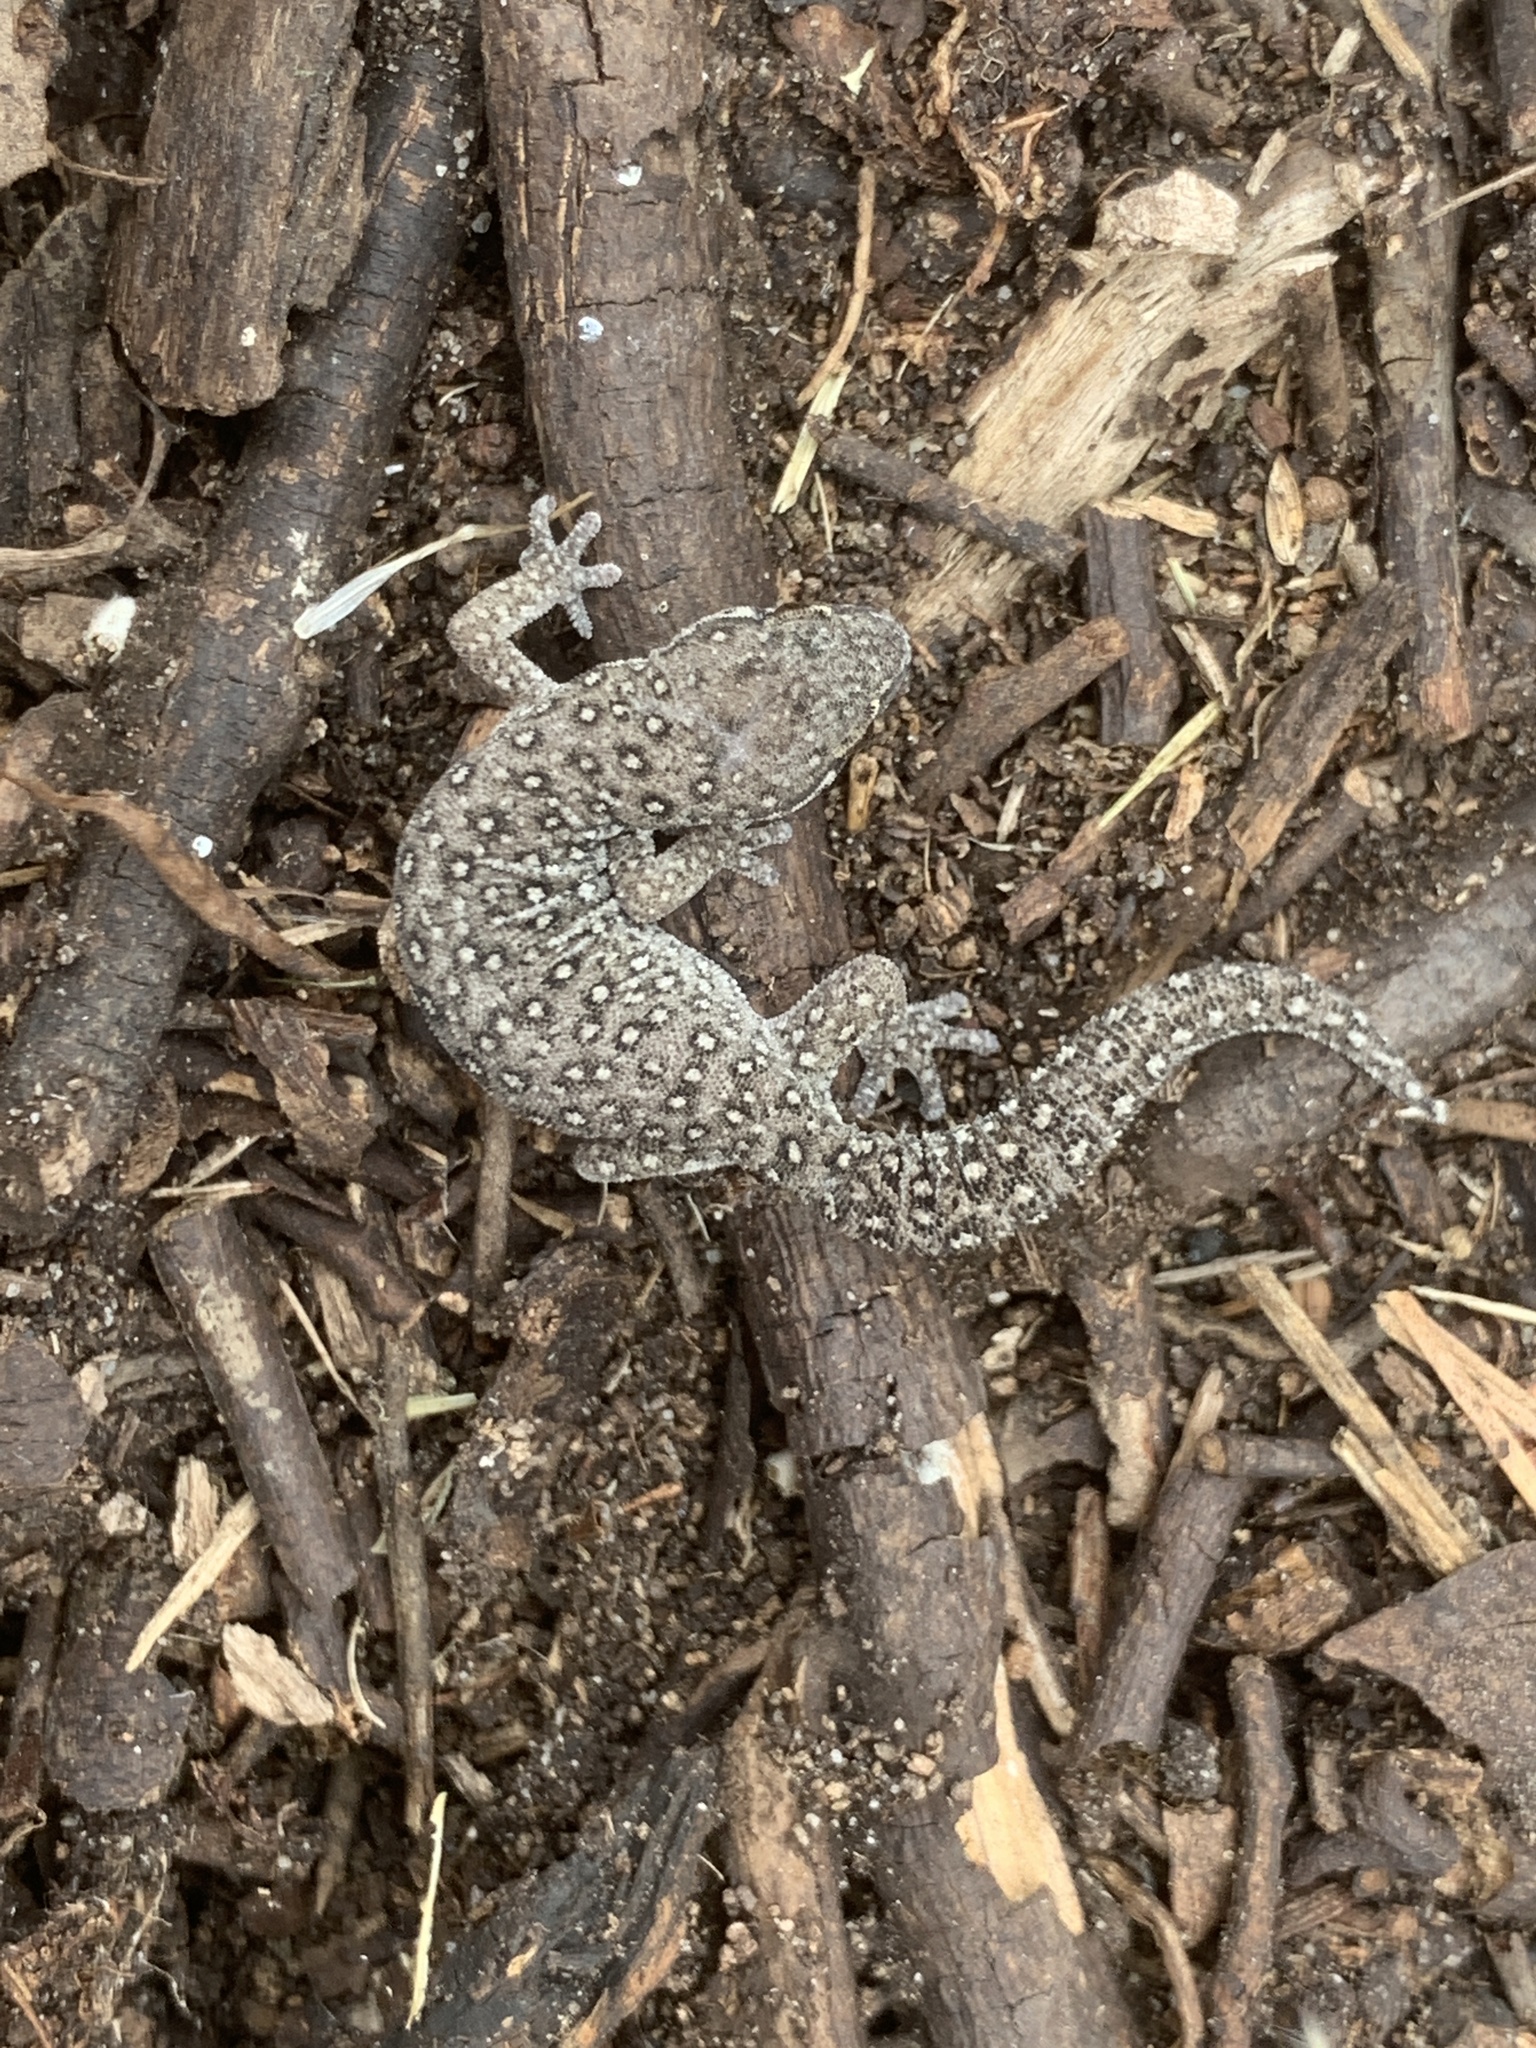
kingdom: Animalia
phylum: Chordata
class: Squamata
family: Gekkonidae
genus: Pachydactylus
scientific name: Pachydactylus geitje
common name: Ocellated thick-toed gecko
